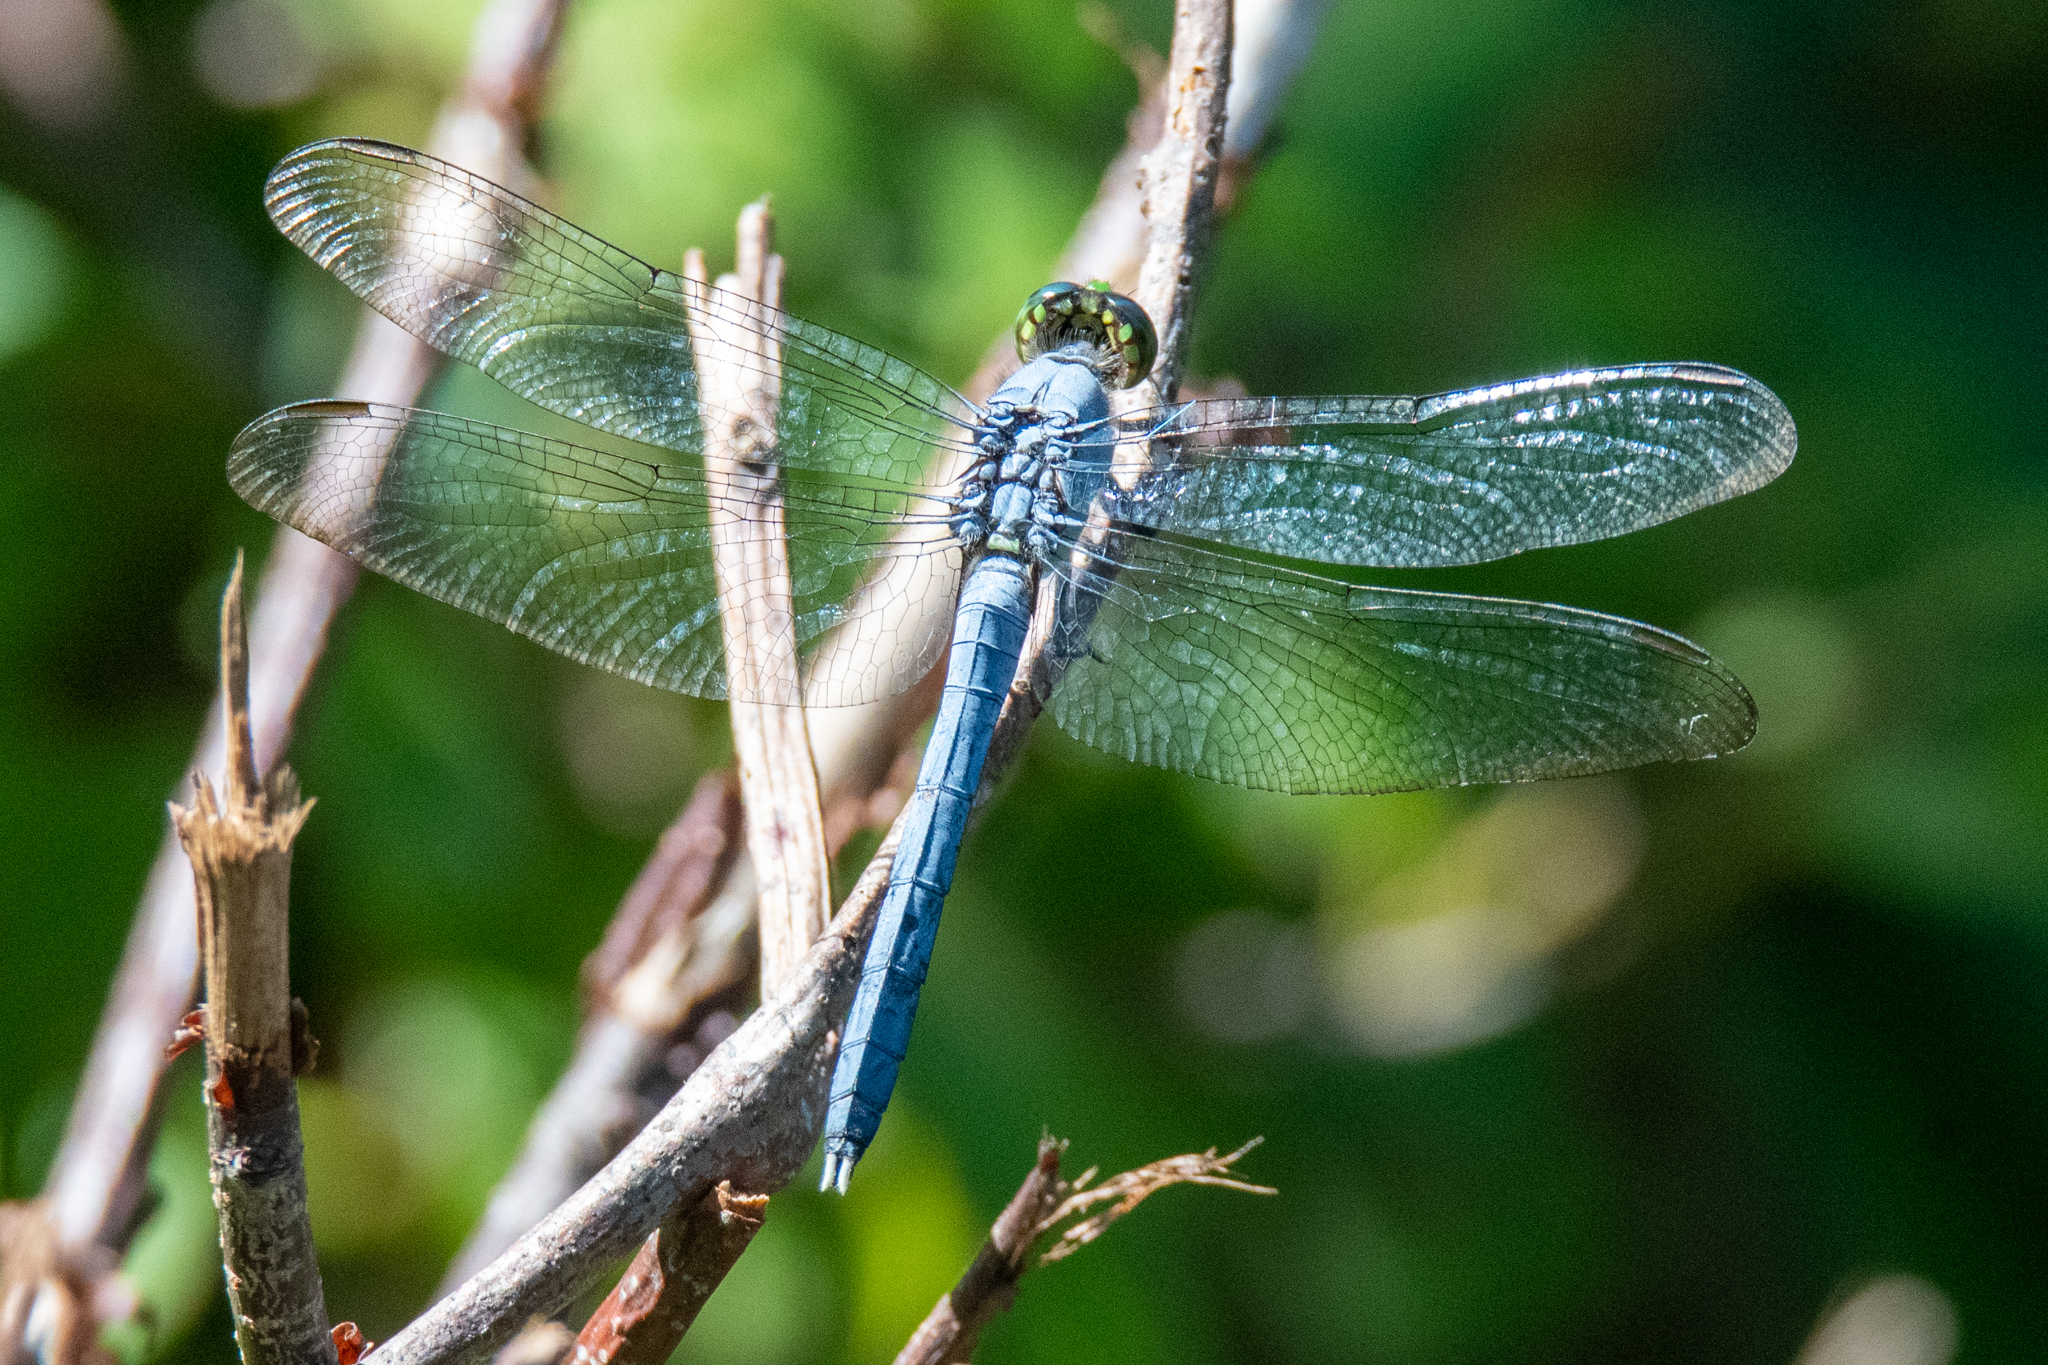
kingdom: Animalia
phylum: Arthropoda
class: Insecta
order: Odonata
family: Libellulidae
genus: Erythemis
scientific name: Erythemis simplicicollis
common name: Eastern pondhawk
